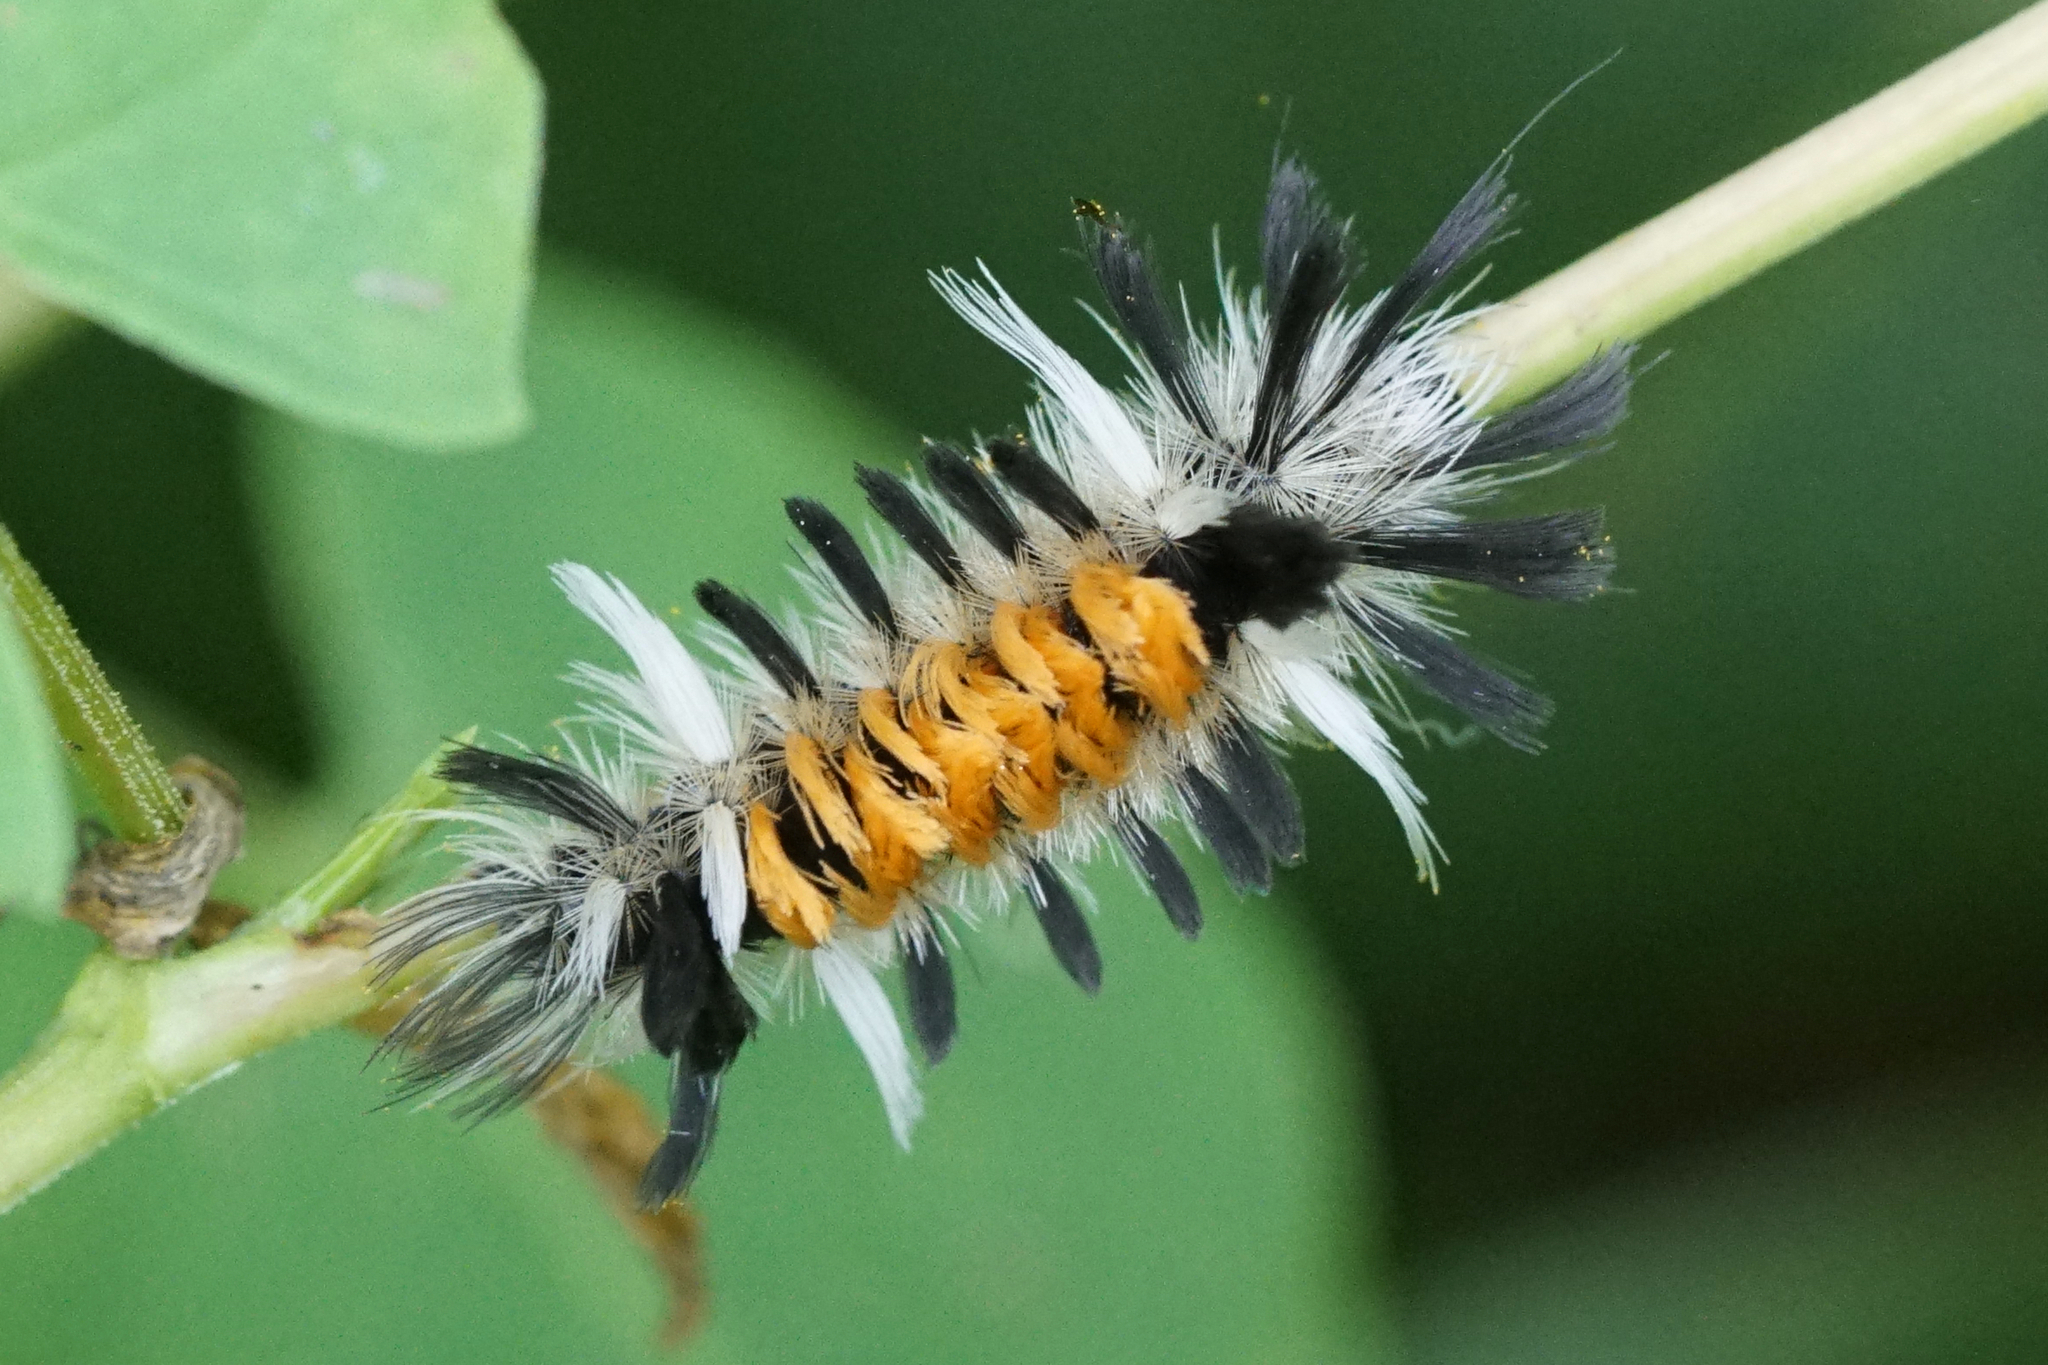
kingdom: Animalia
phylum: Arthropoda
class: Insecta
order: Lepidoptera
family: Erebidae
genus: Euchaetes
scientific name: Euchaetes egle
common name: Milkweed tussock moth
